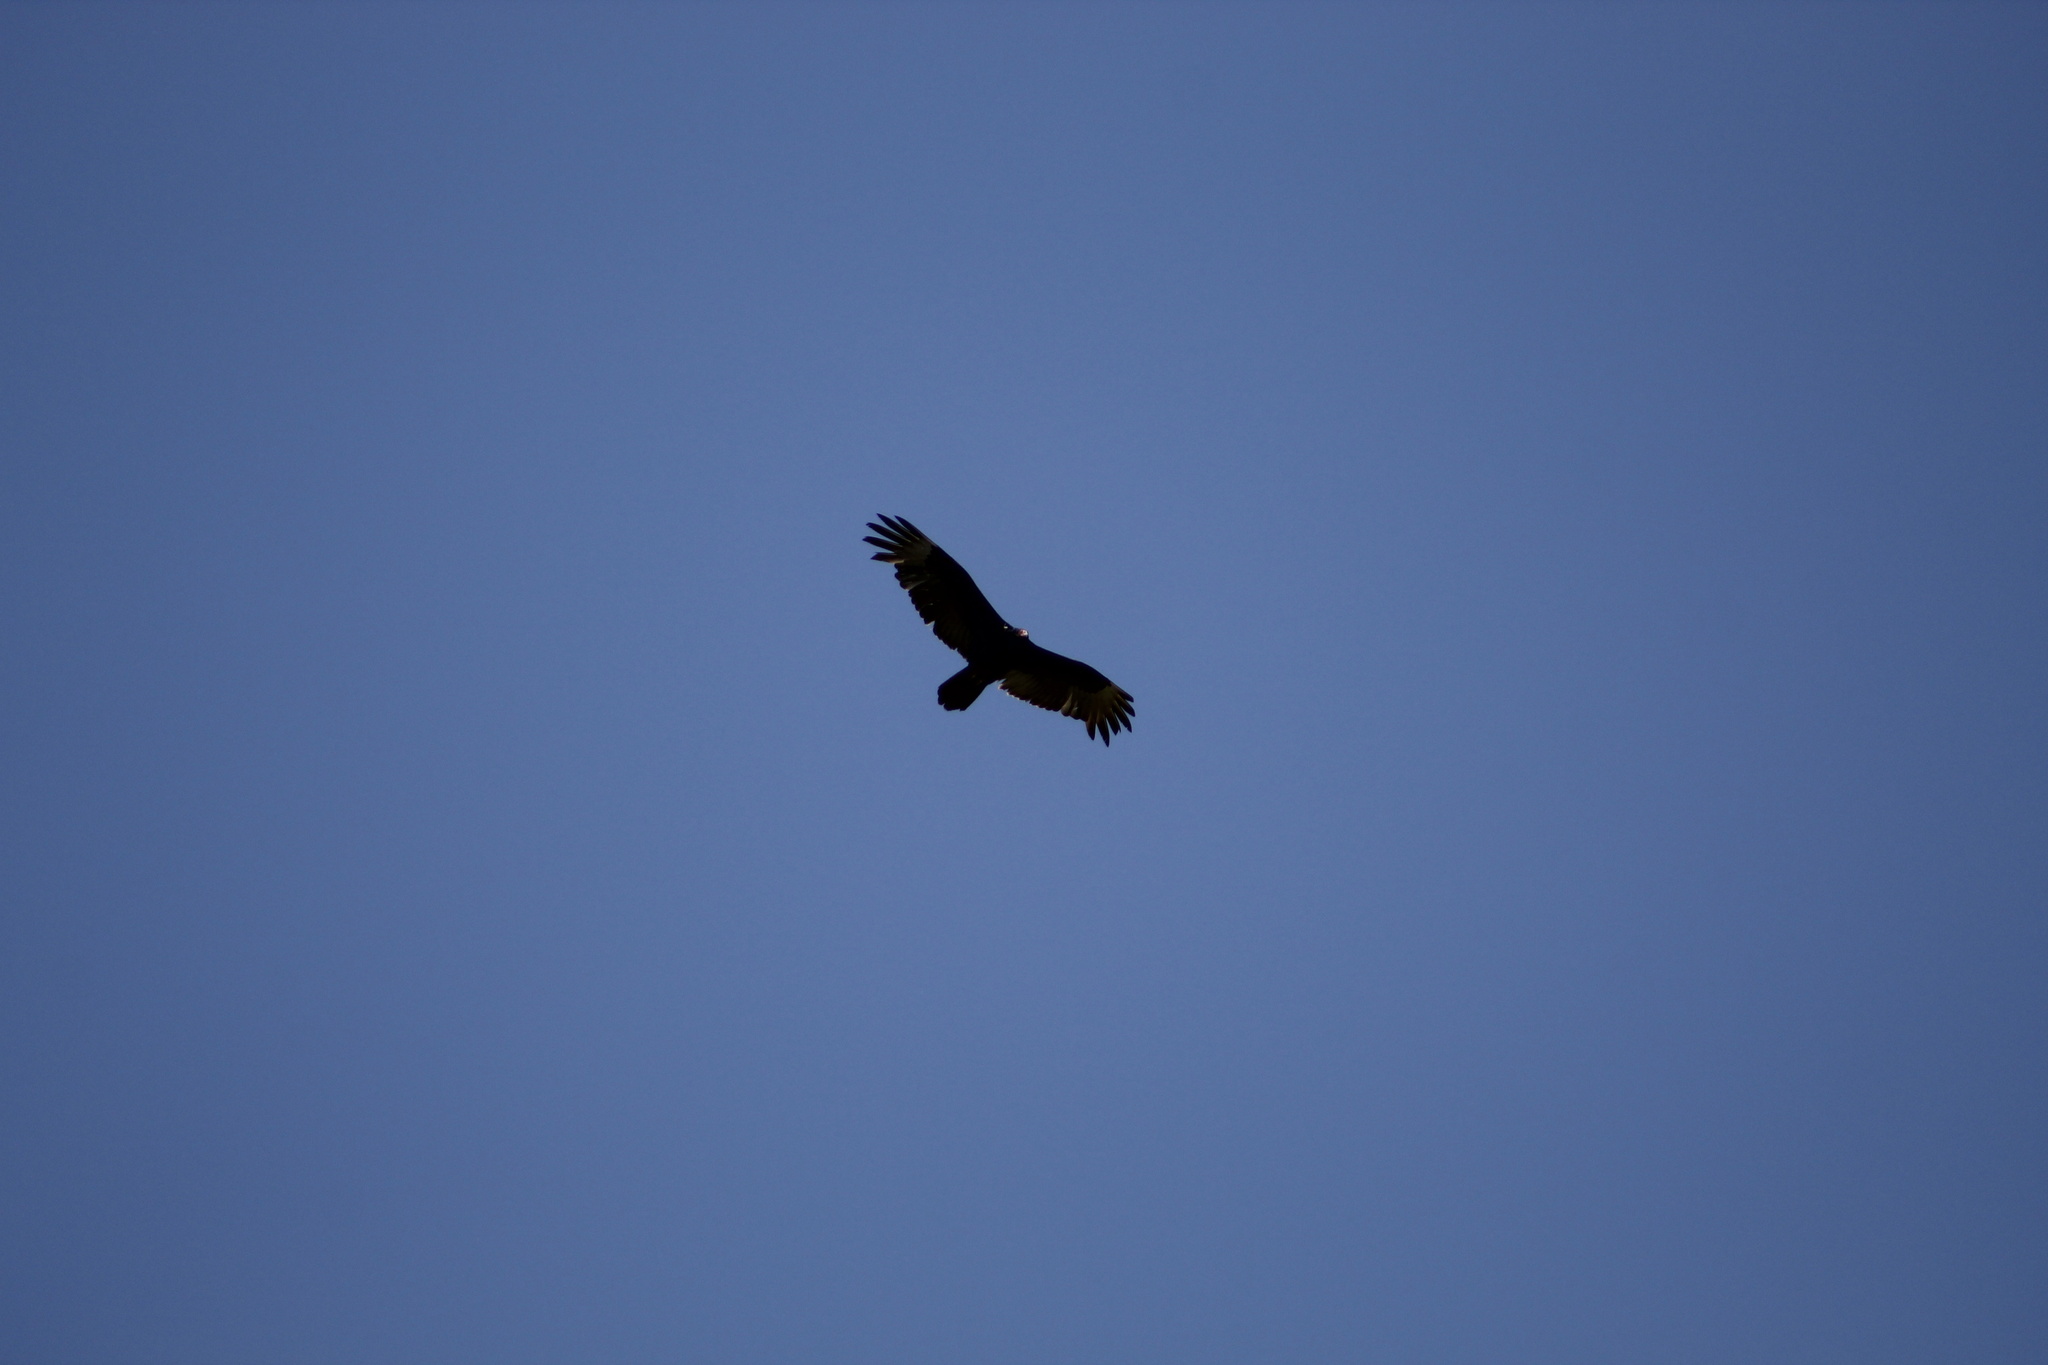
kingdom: Animalia
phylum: Chordata
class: Aves
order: Accipitriformes
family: Cathartidae
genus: Cathartes
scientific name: Cathartes aura
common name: Turkey vulture
